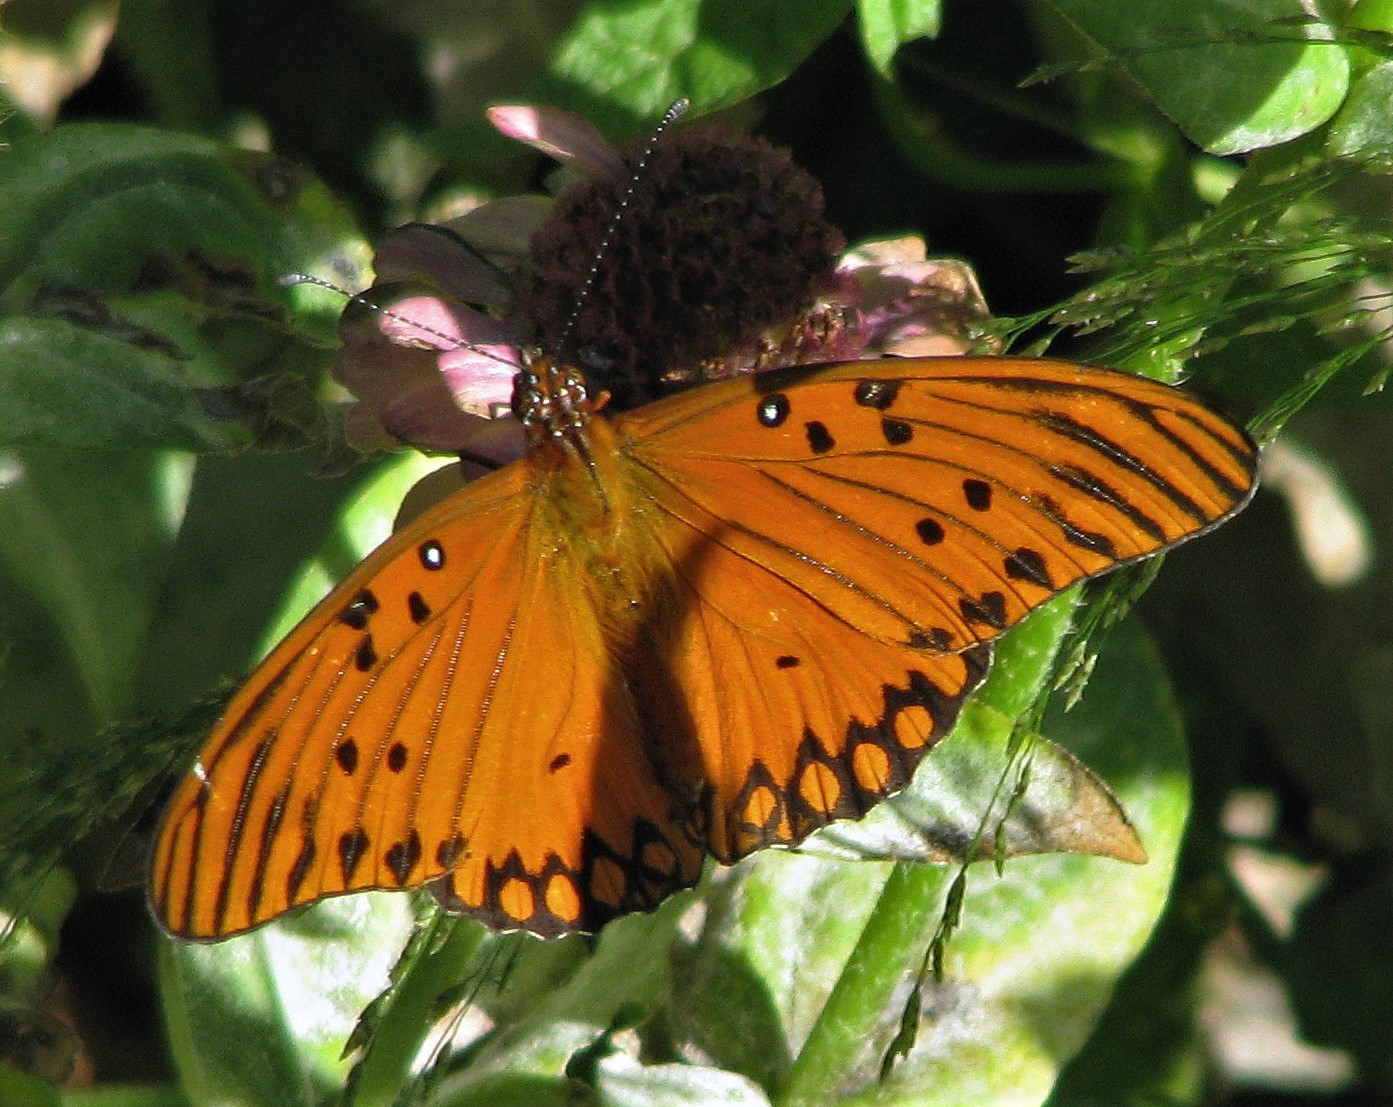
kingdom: Animalia
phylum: Arthropoda
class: Insecta
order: Lepidoptera
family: Nymphalidae
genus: Dione
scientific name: Dione vanillae
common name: Gulf fritillary
